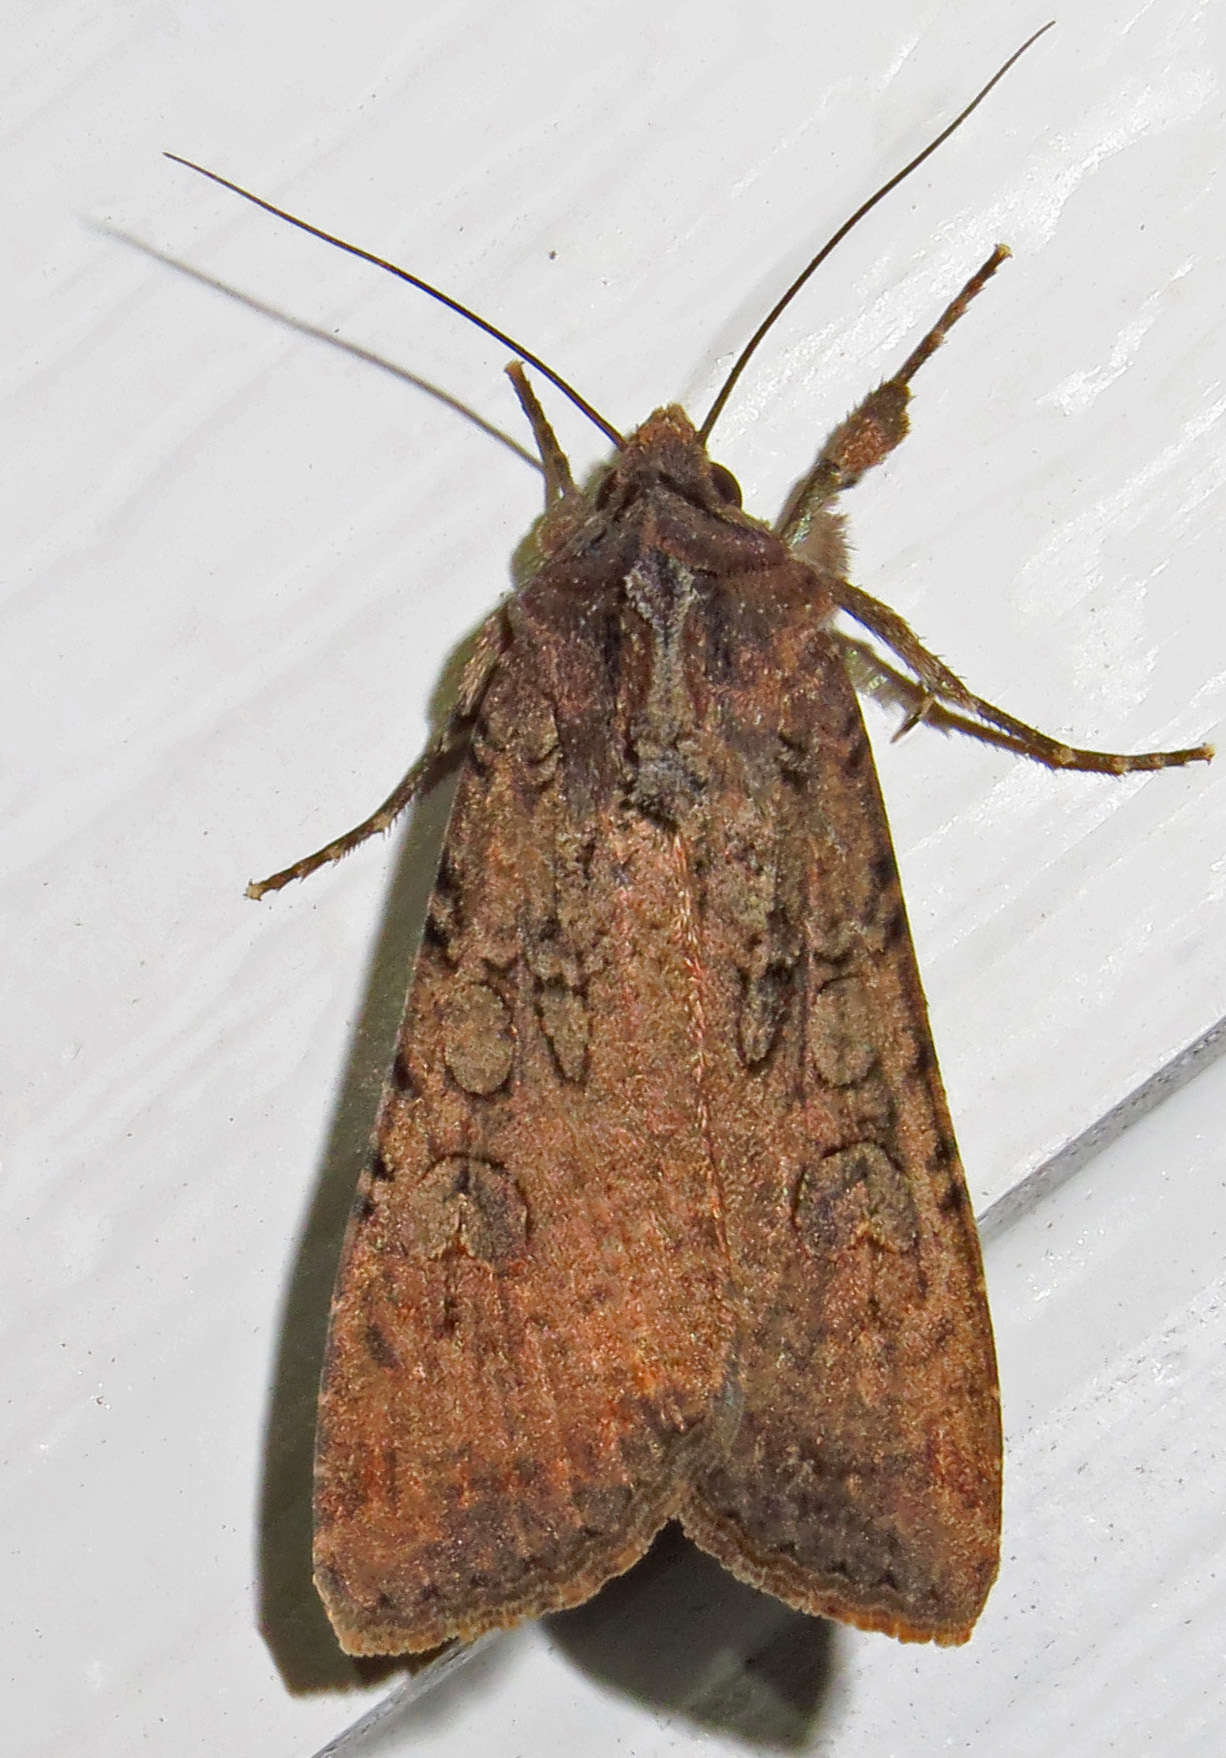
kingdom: Animalia
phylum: Arthropoda
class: Insecta
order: Lepidoptera
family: Noctuidae
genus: Peridroma
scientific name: Peridroma saucia
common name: Pearly underwing
